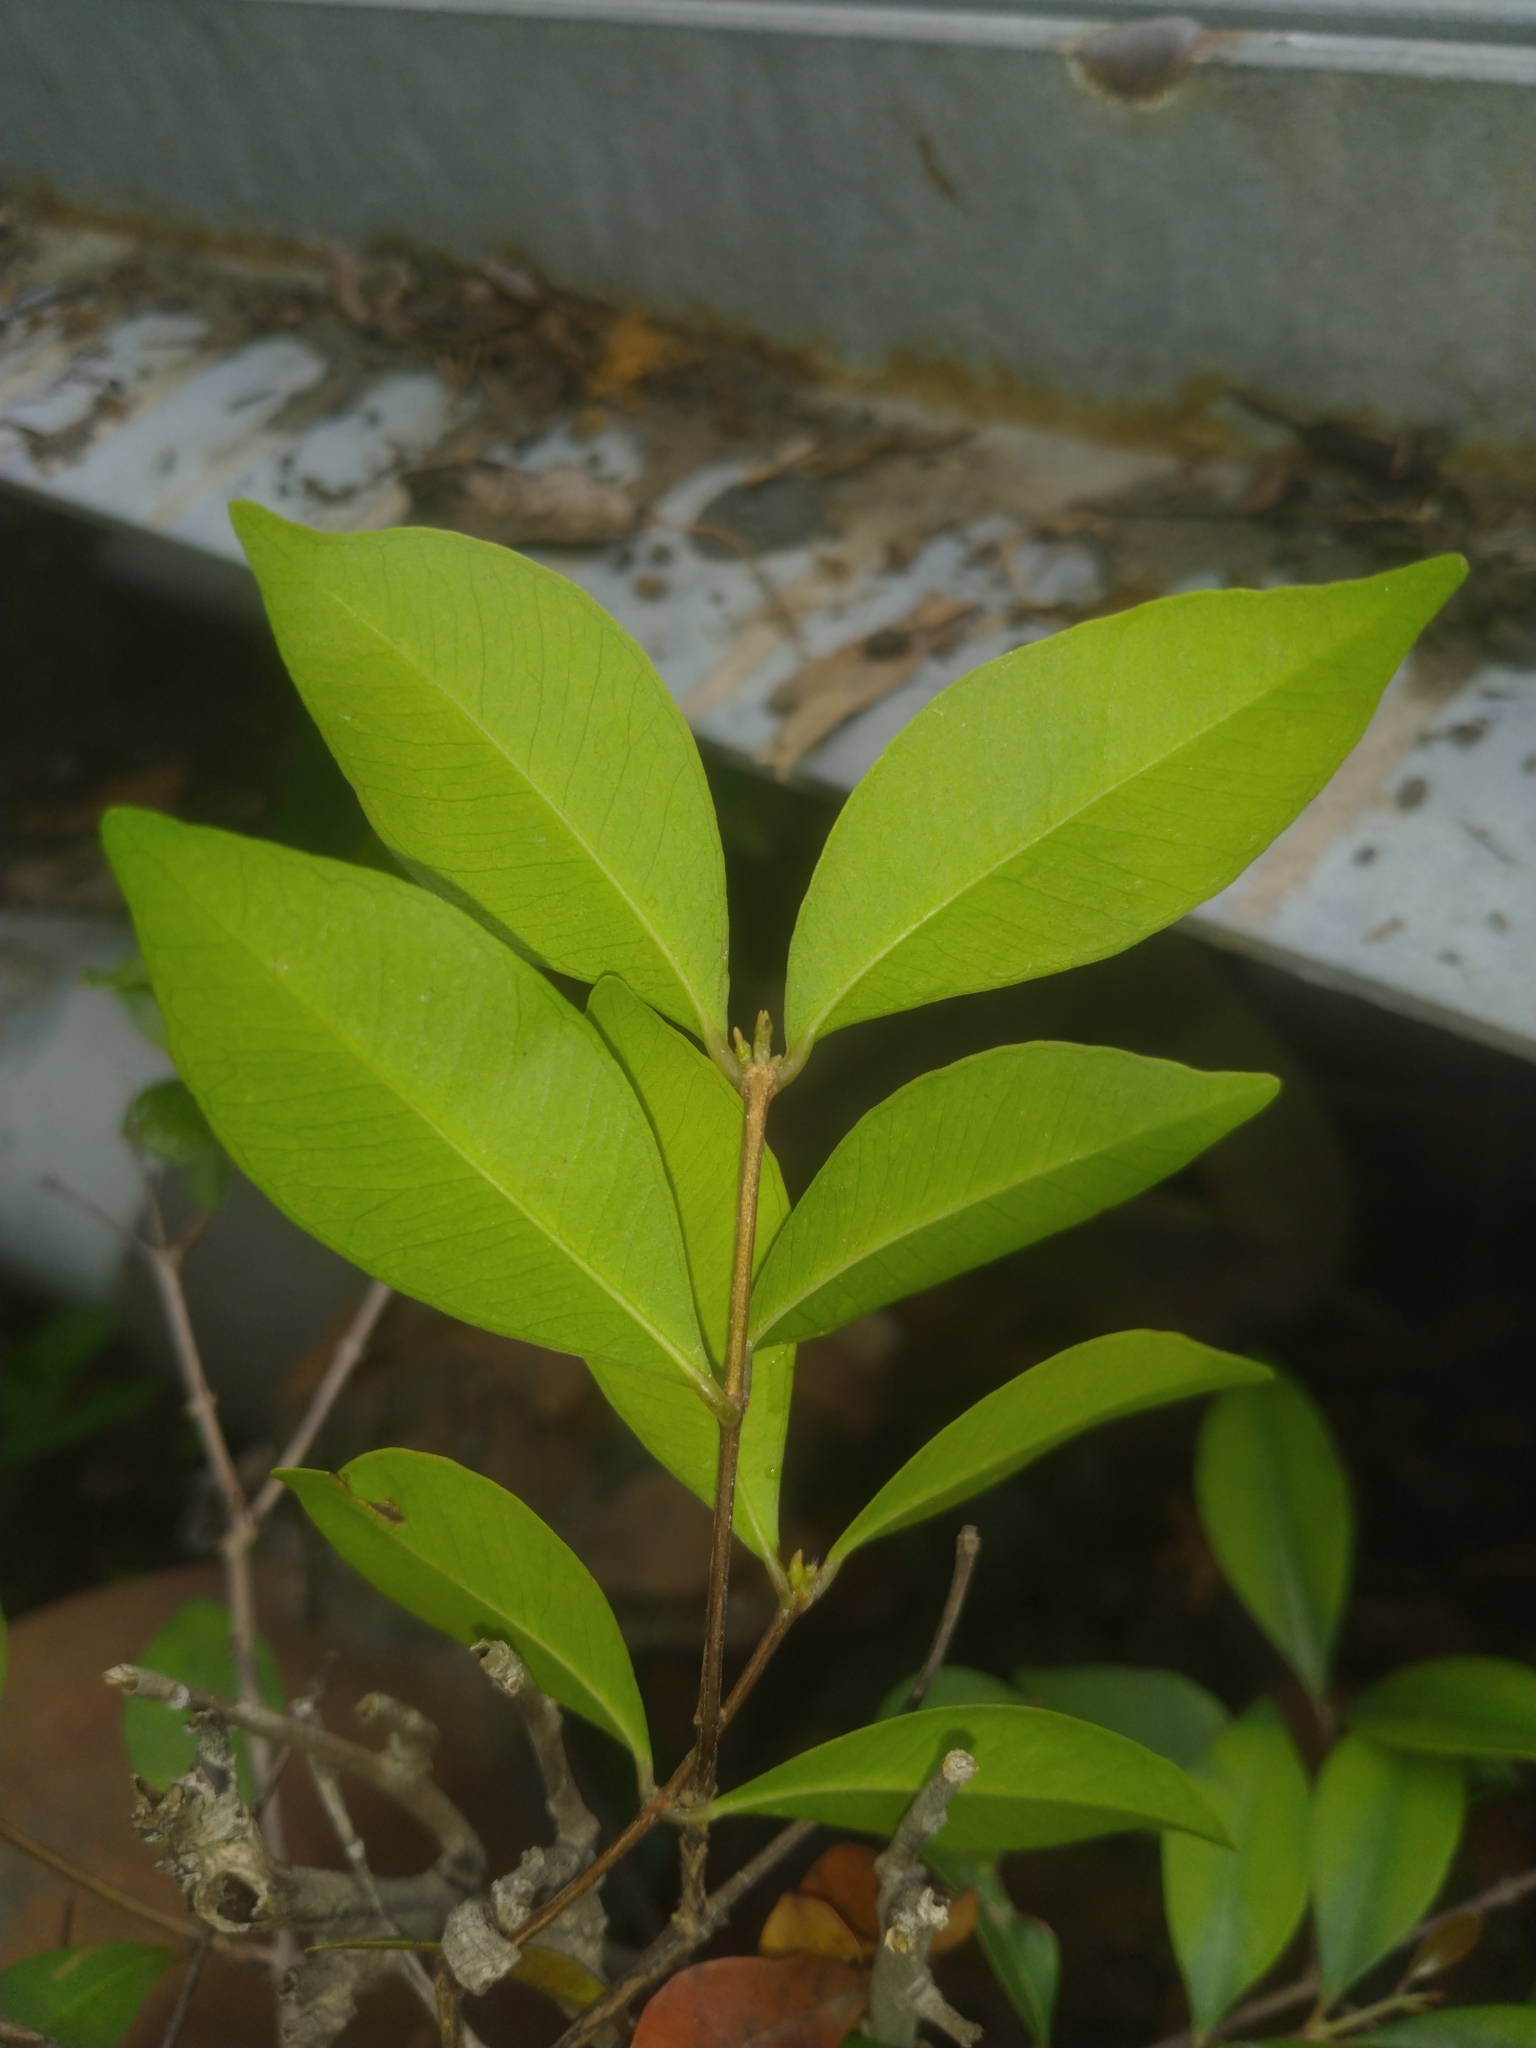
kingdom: Plantae
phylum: Tracheophyta
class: Magnoliopsida
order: Myrtales
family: Myrtaceae
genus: Syzygium
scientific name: Syzygium formosanum
